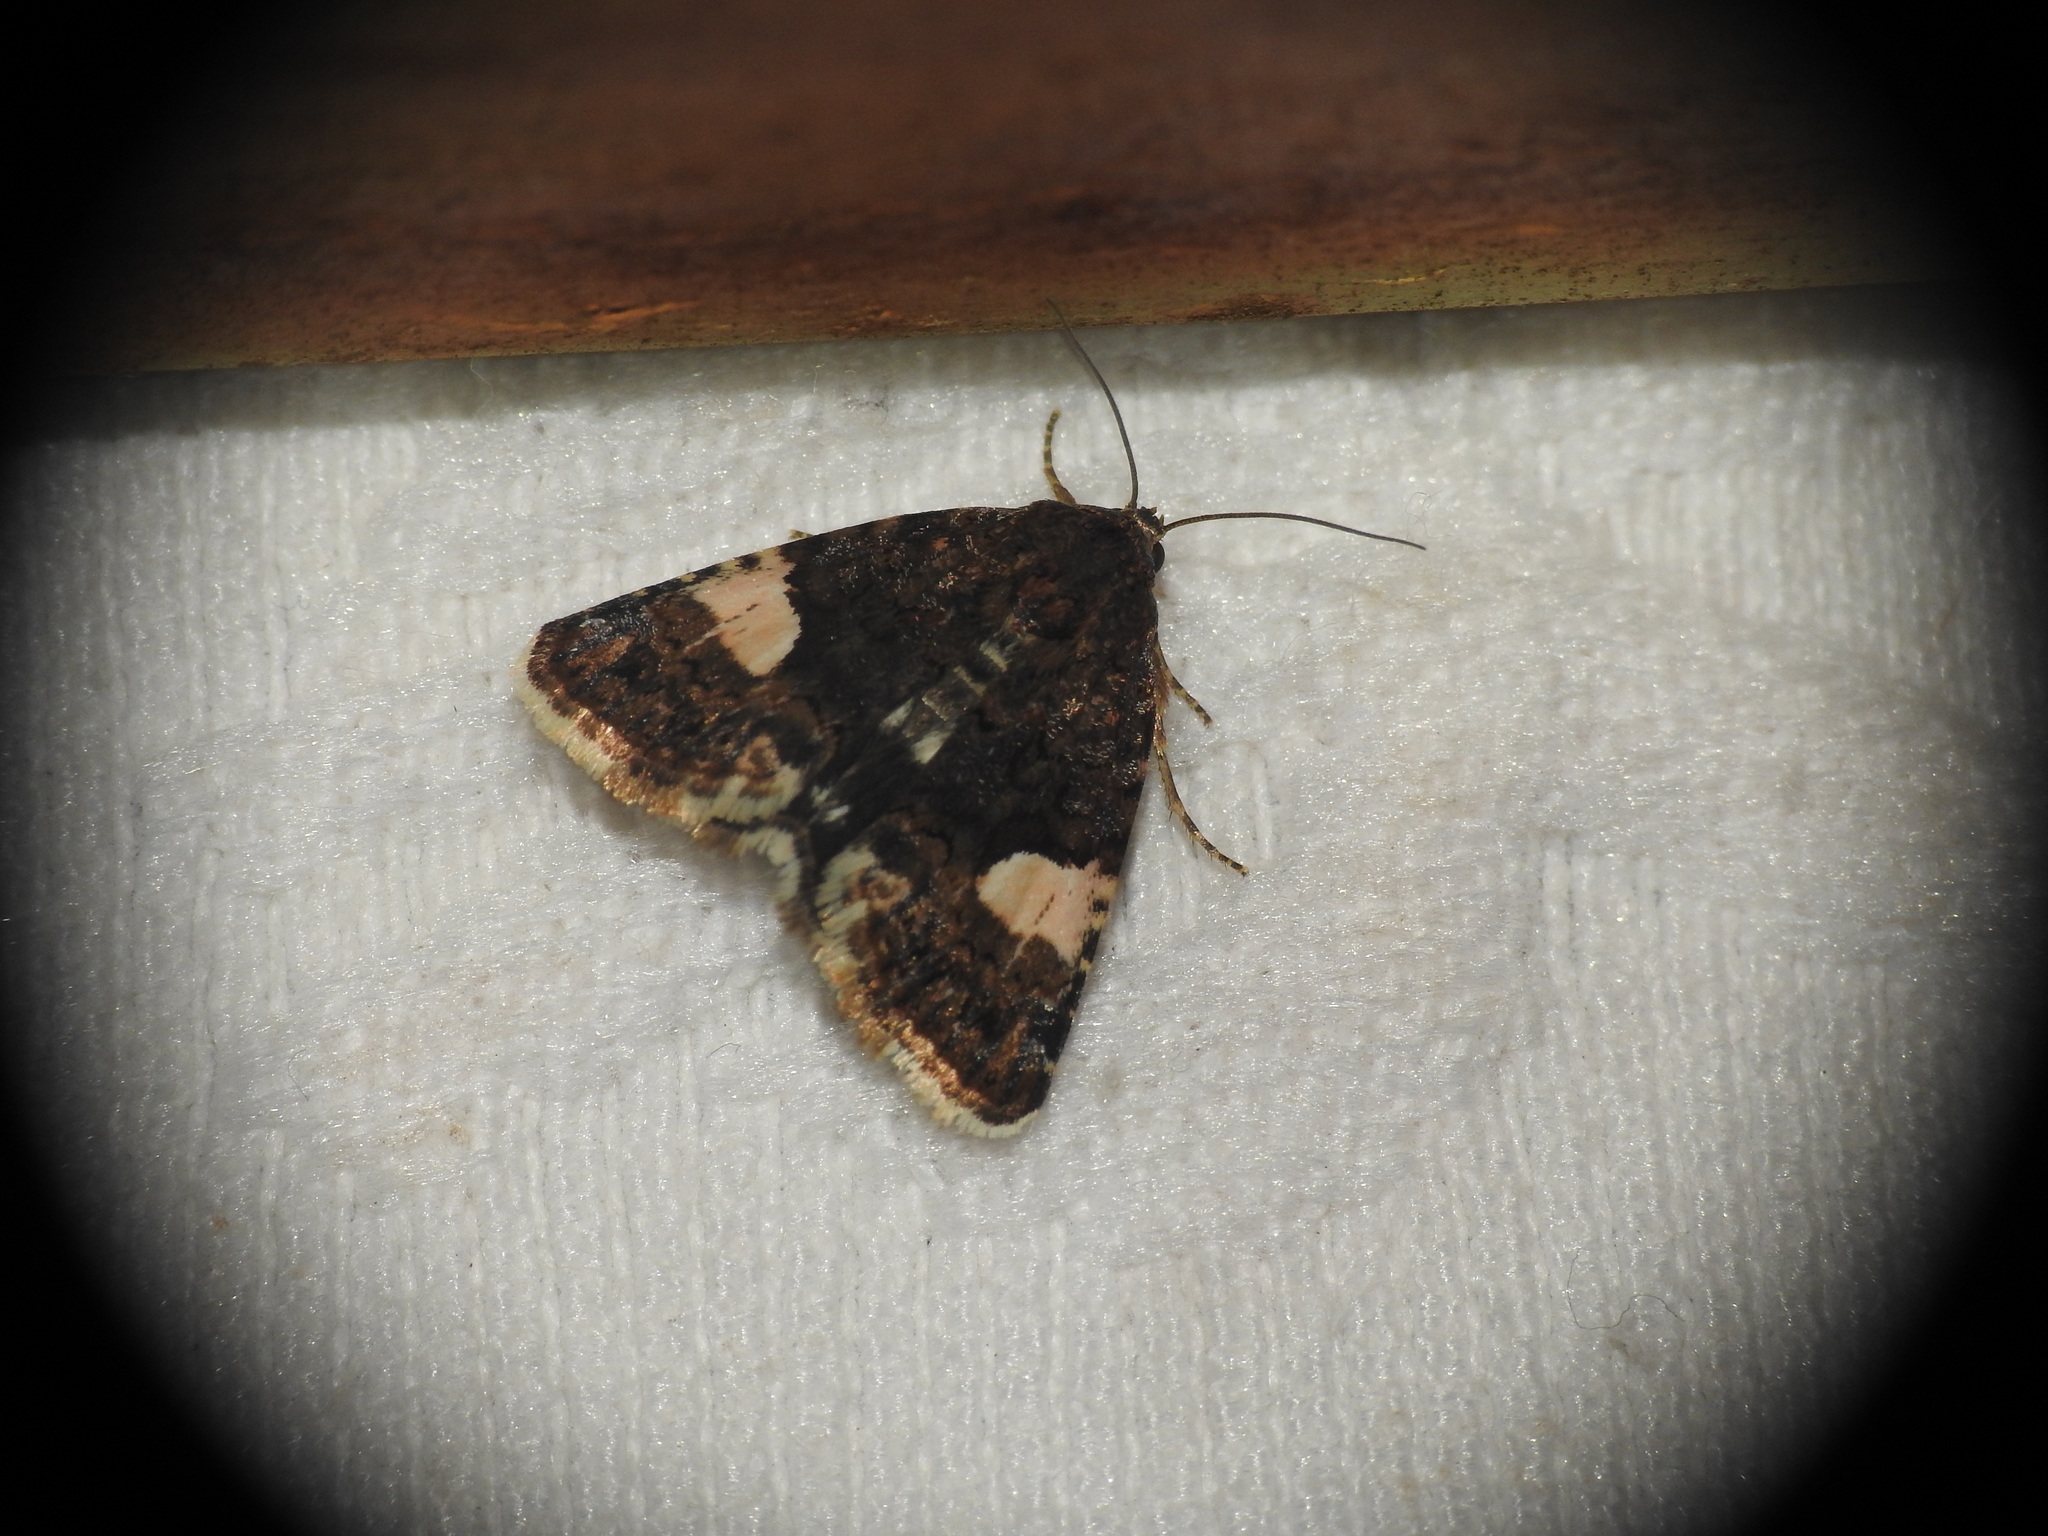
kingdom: Animalia
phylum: Arthropoda
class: Insecta
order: Lepidoptera
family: Erebidae
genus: Tyta
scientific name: Tyta luctuosa
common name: Four-spotted
